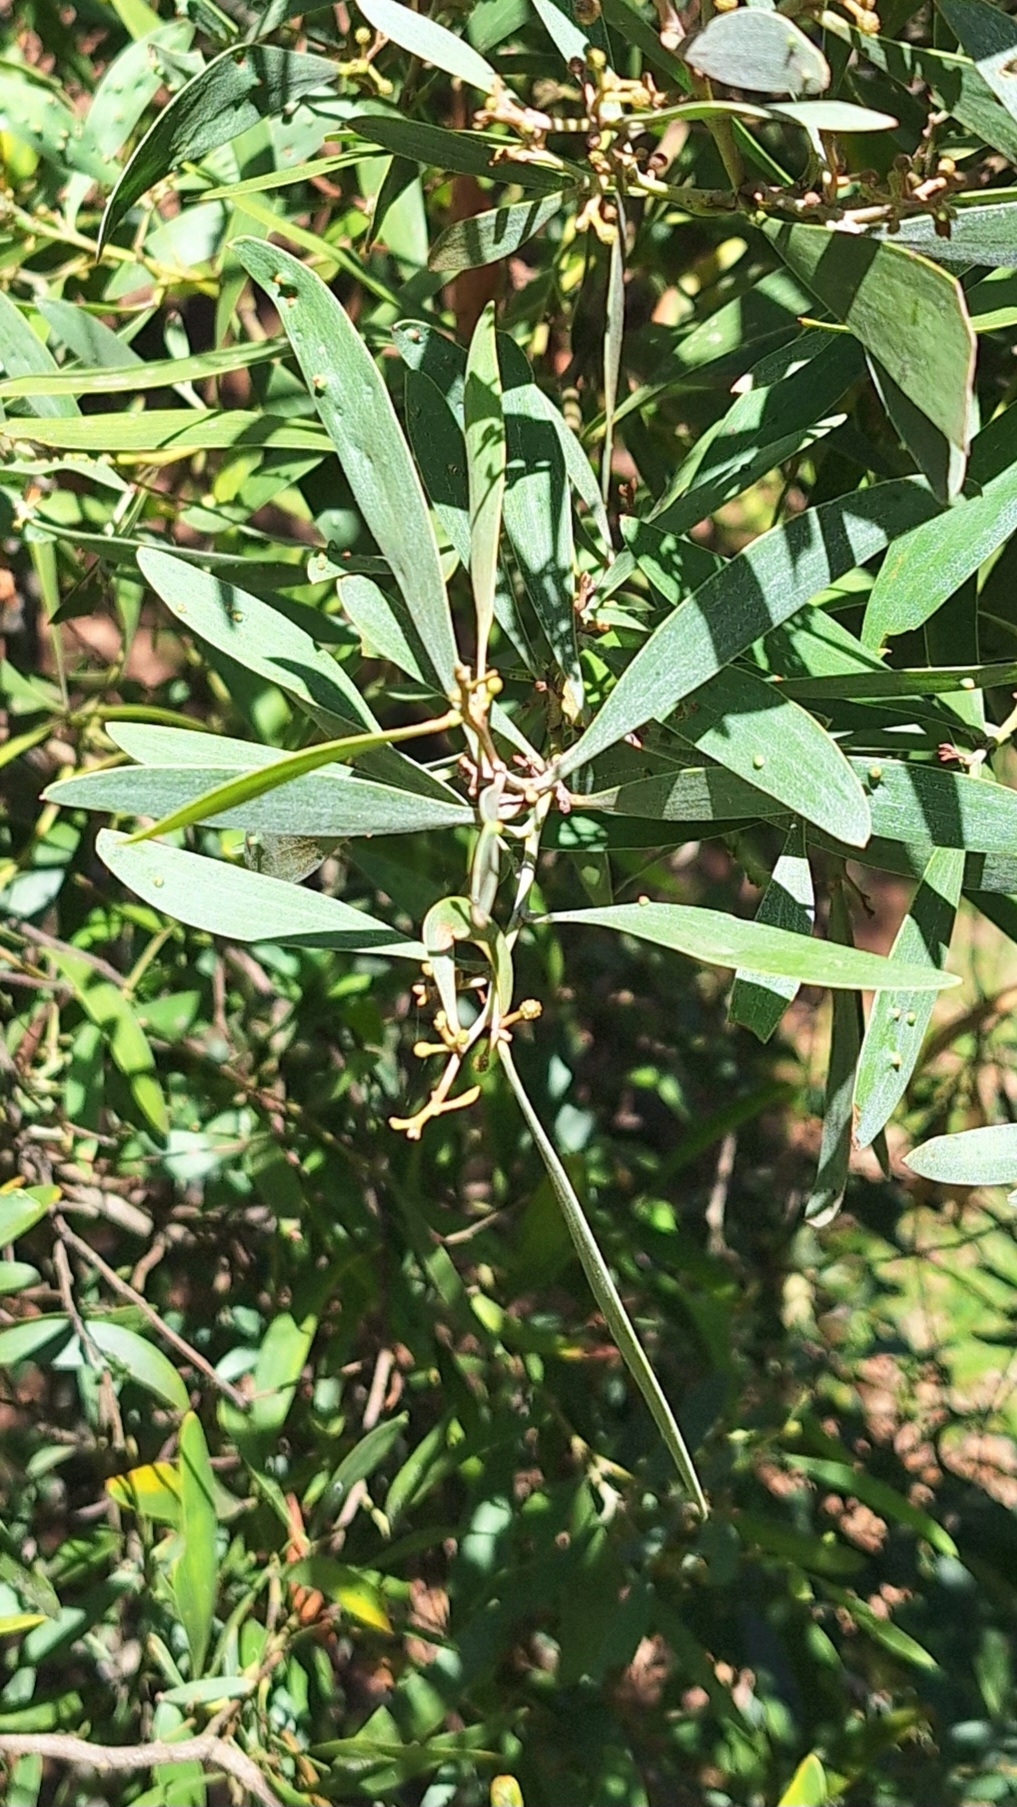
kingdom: Plantae
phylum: Tracheophyta
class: Magnoliopsida
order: Fabales
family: Fabaceae
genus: Acacia
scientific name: Acacia melanoxylon
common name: Blackwood
